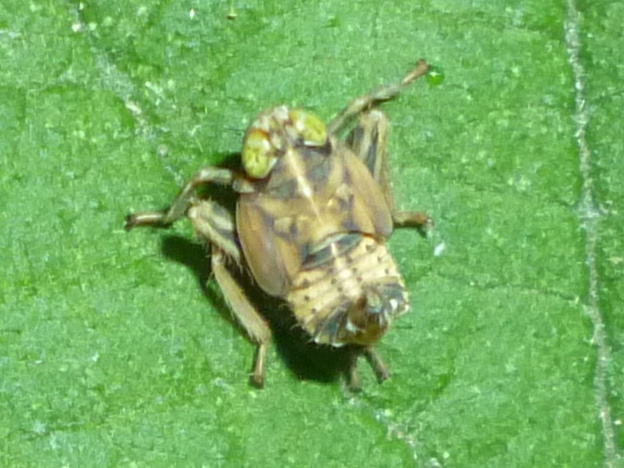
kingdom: Animalia
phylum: Arthropoda
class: Insecta
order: Hemiptera
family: Cicadellidae
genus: Jikradia
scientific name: Jikradia olitoria
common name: Coppery leafhopper
